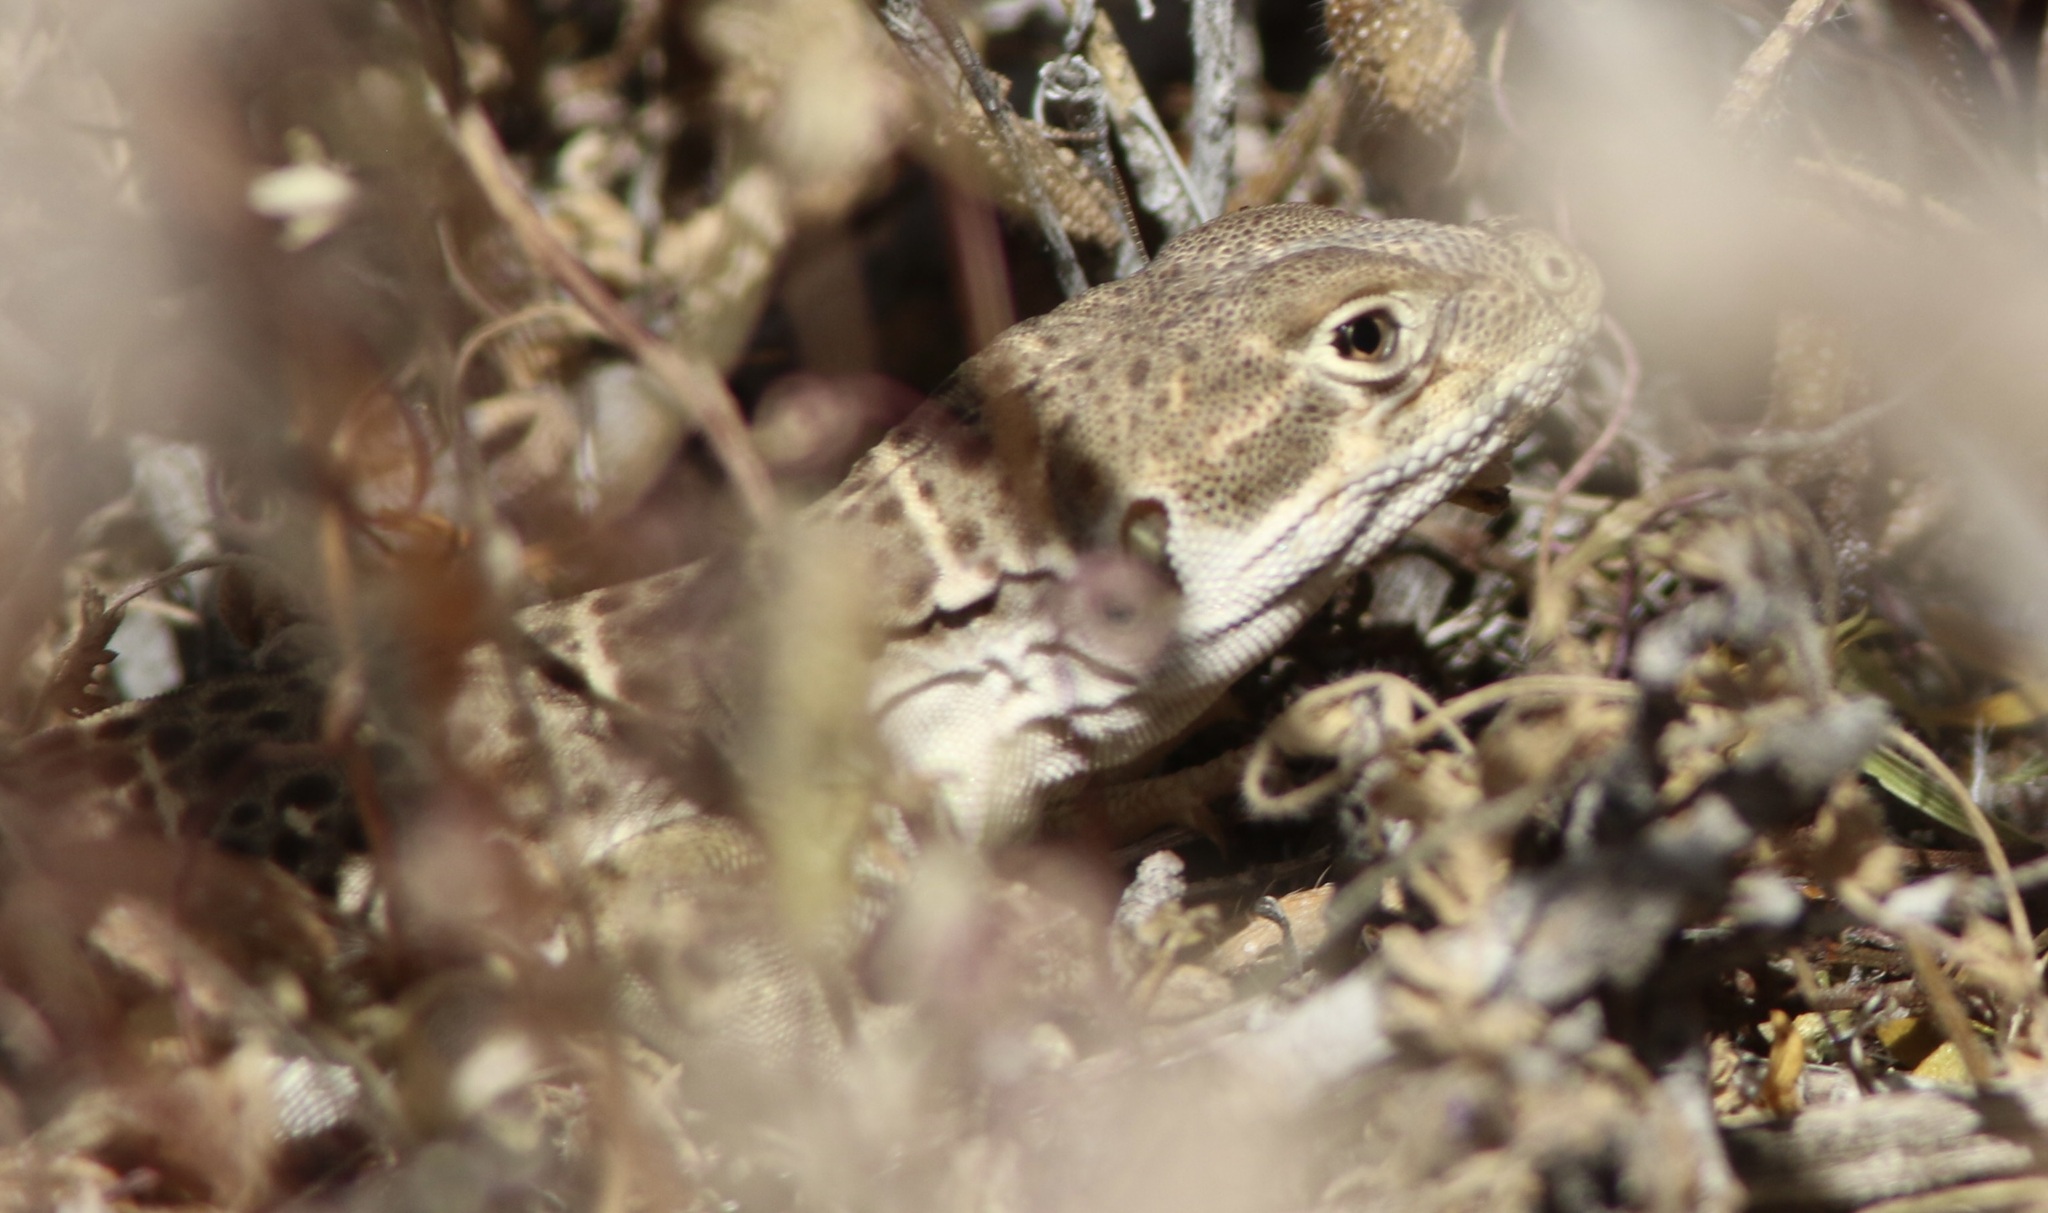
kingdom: Animalia
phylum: Chordata
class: Squamata
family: Crotaphytidae
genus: Gambelia
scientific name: Gambelia wislizenii
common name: Longnose leopard lizard
